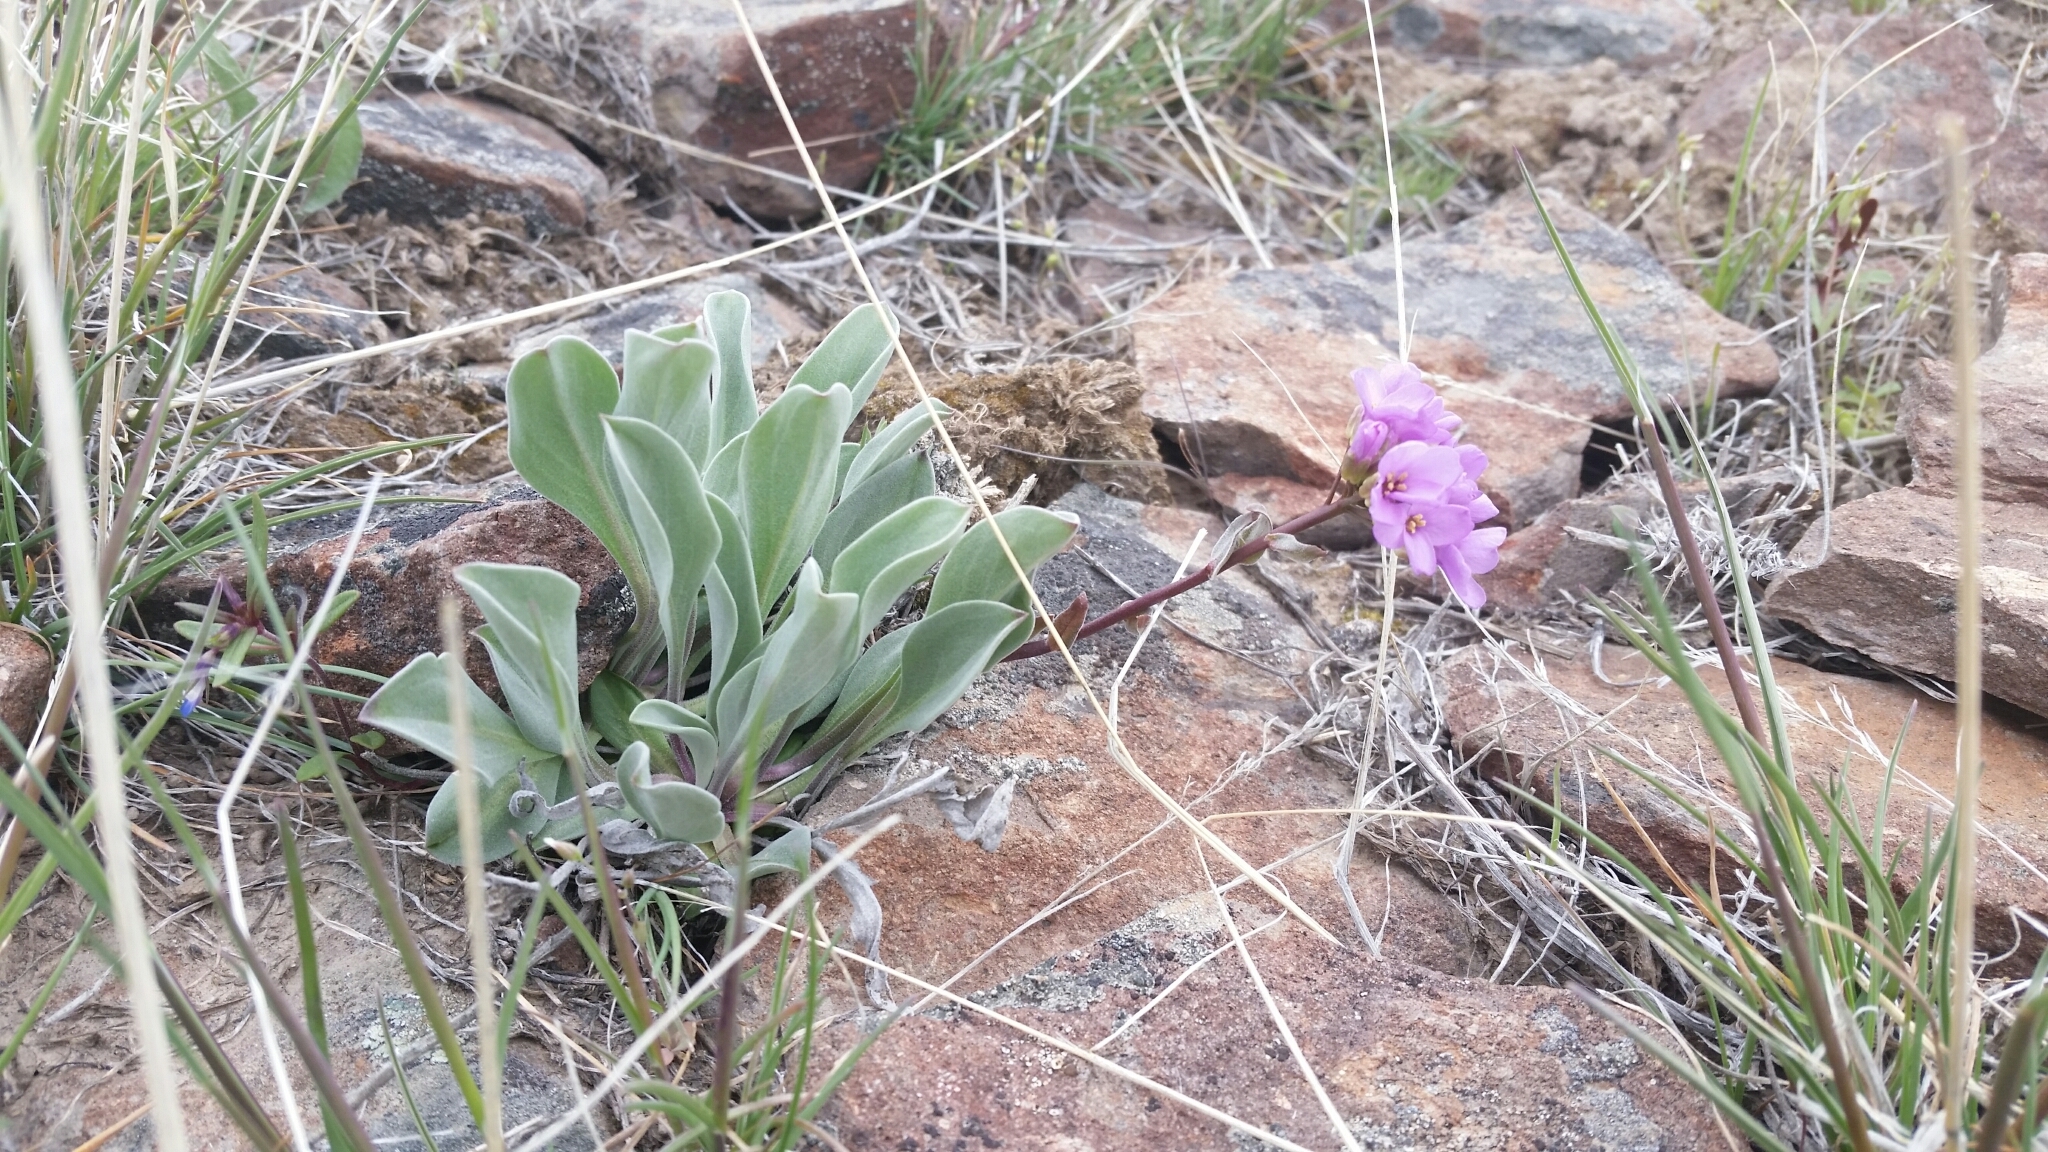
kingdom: Plantae
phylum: Tracheophyta
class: Magnoliopsida
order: Brassicales
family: Brassicaceae
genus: Phoenicaulis
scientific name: Phoenicaulis cheiranthoides
